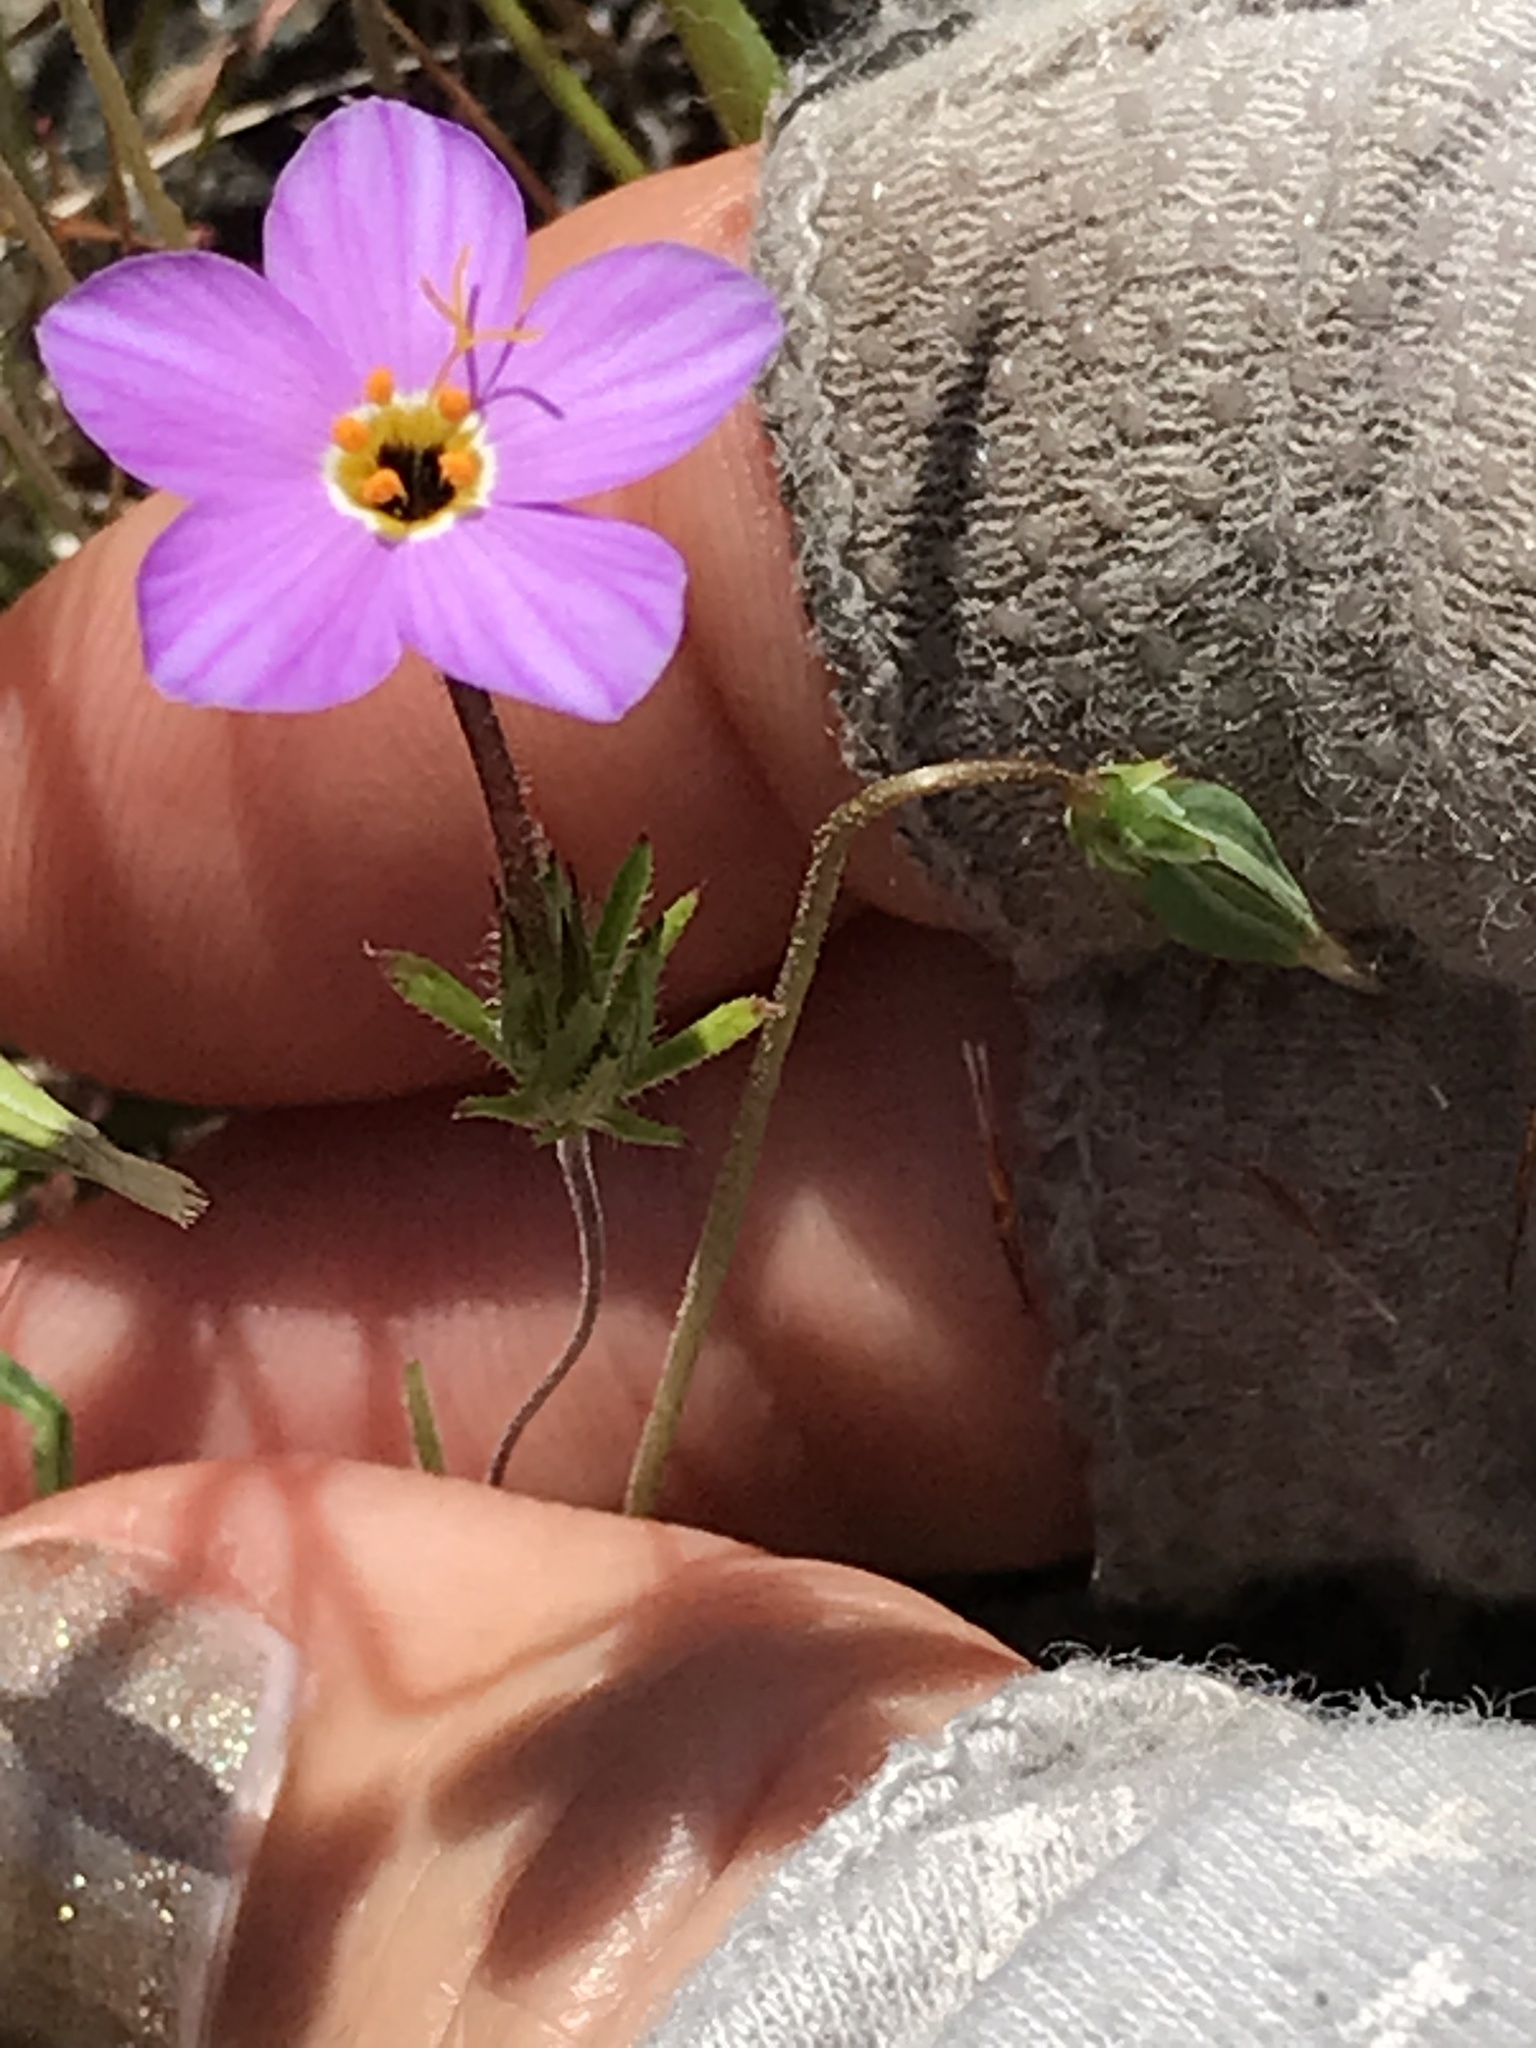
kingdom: Plantae
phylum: Tracheophyta
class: Magnoliopsida
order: Ericales
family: Polemoniaceae
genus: Leptosiphon
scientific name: Leptosiphon androsaceus
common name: False babystars
